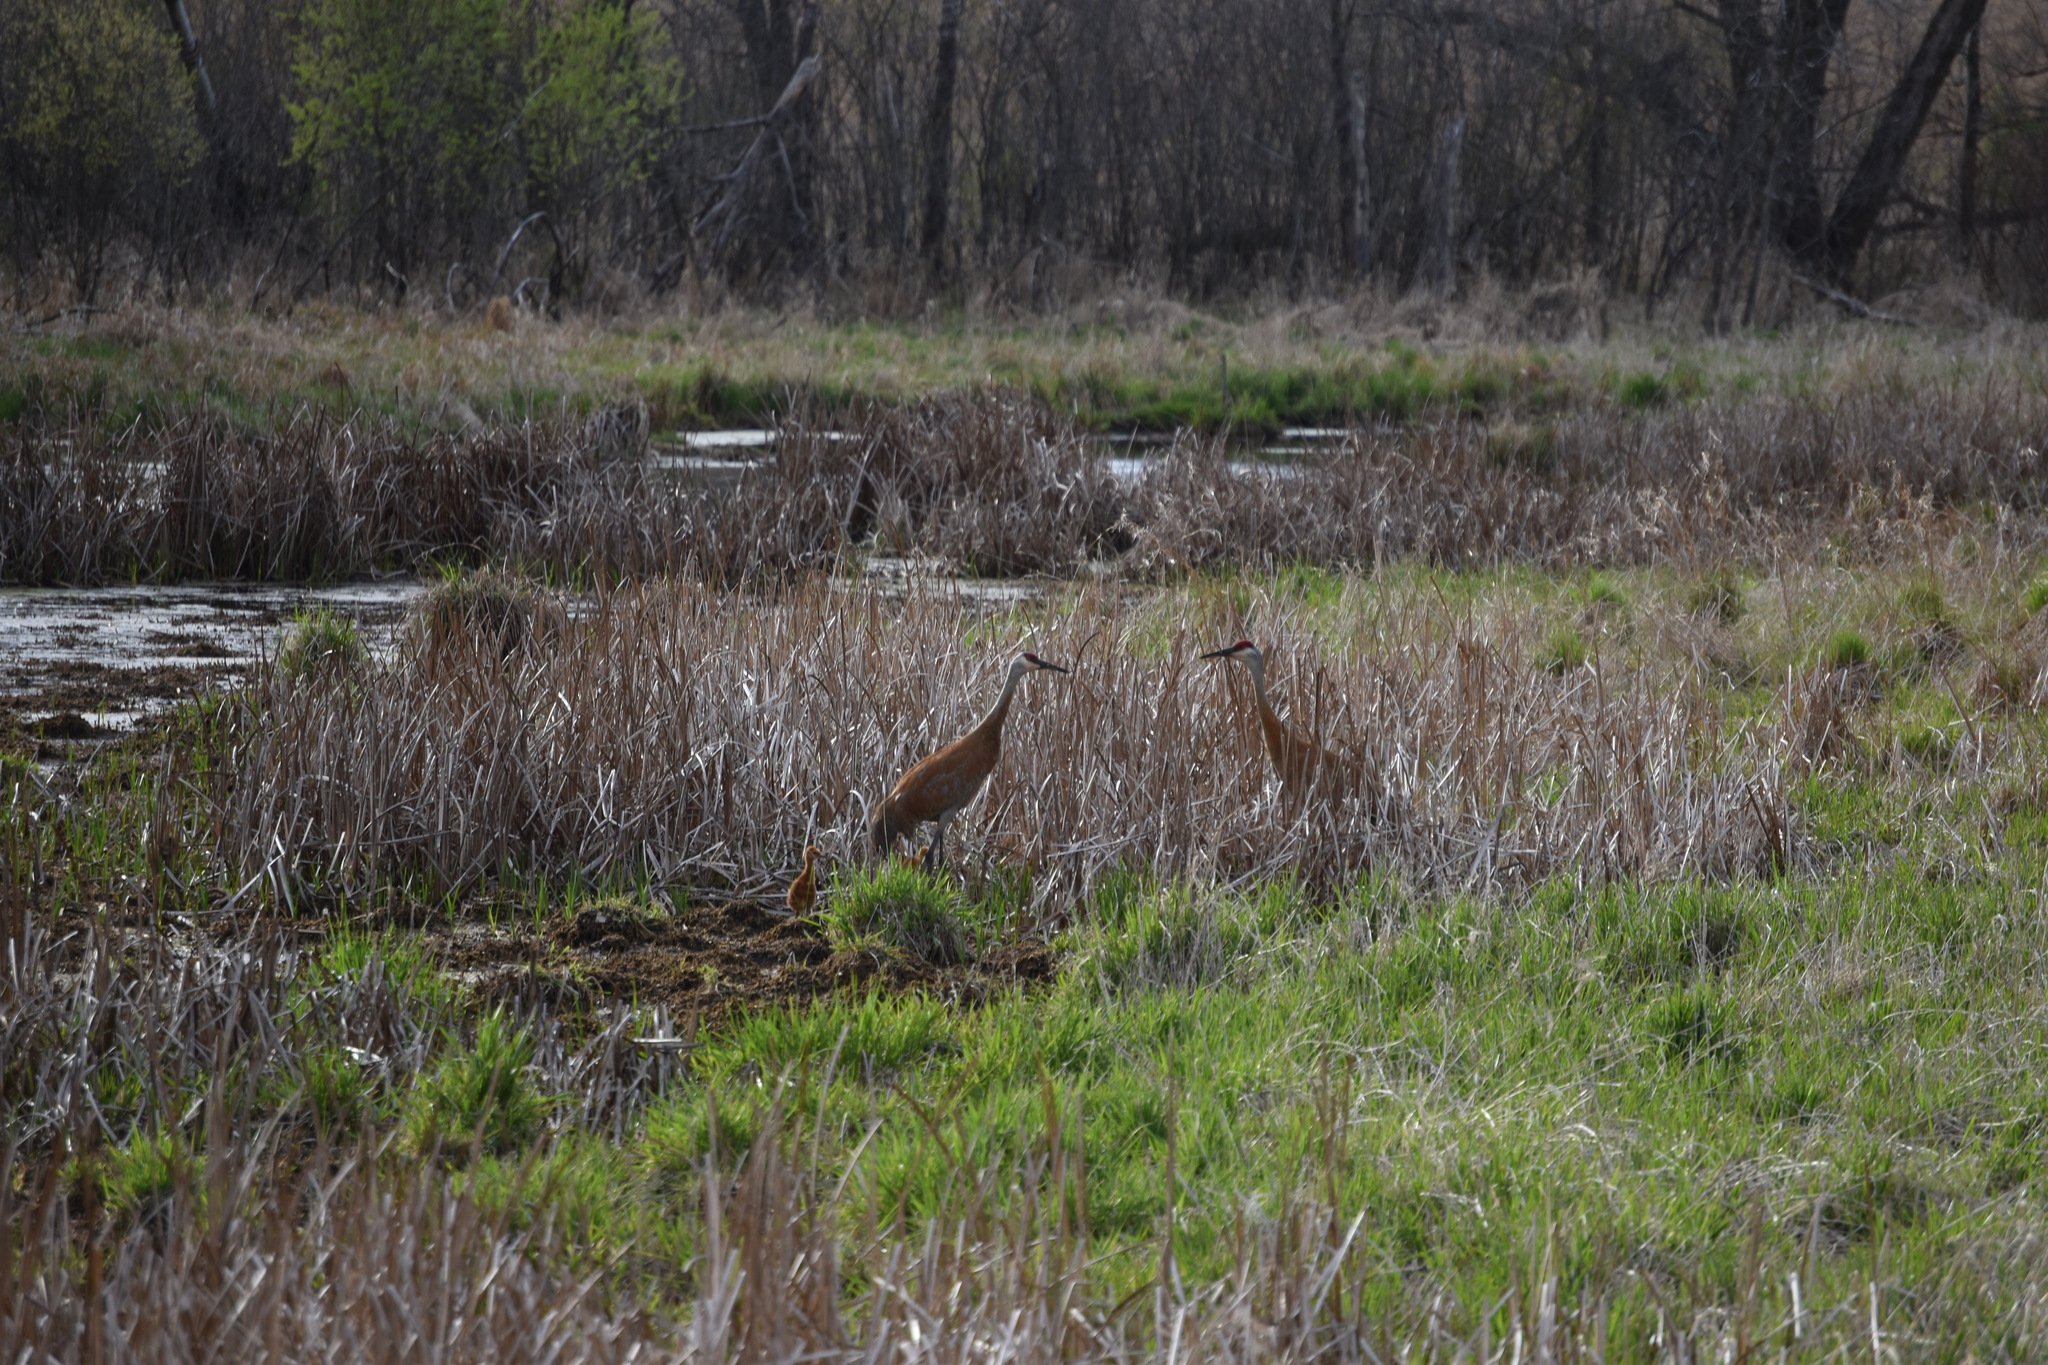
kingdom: Animalia
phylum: Chordata
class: Aves
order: Gruiformes
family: Gruidae
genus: Grus
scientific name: Grus canadensis
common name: Sandhill crane
